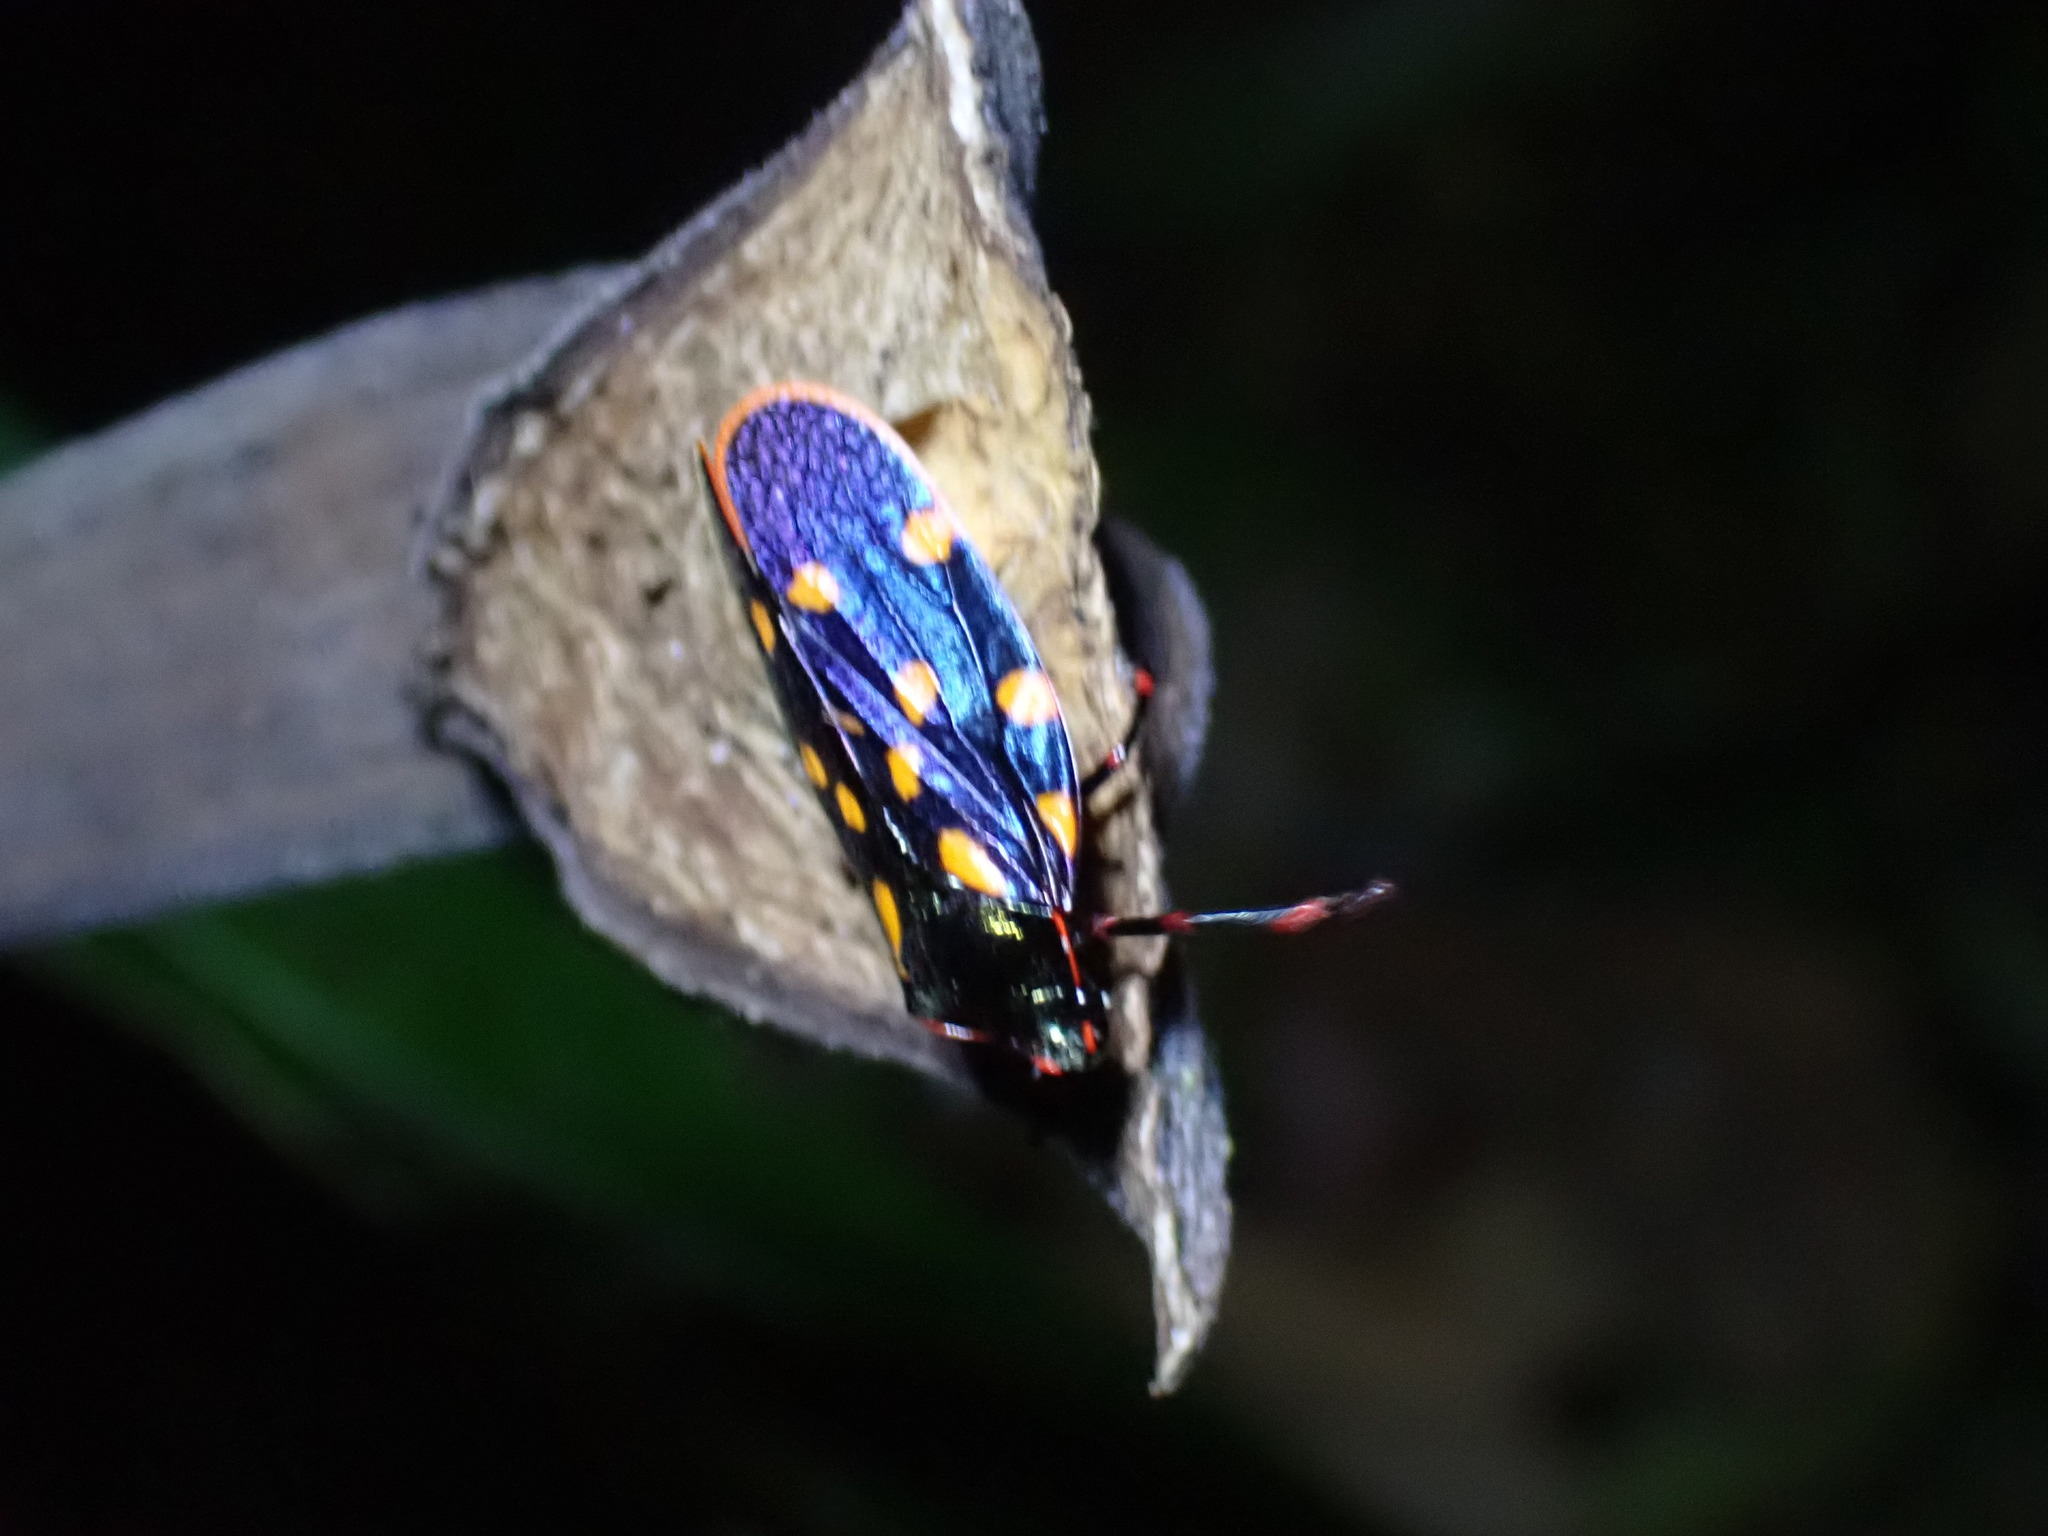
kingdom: Animalia
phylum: Arthropoda
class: Insecta
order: Hemiptera
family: Cercopidae
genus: Mahanarva
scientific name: Mahanarva costaricensis
